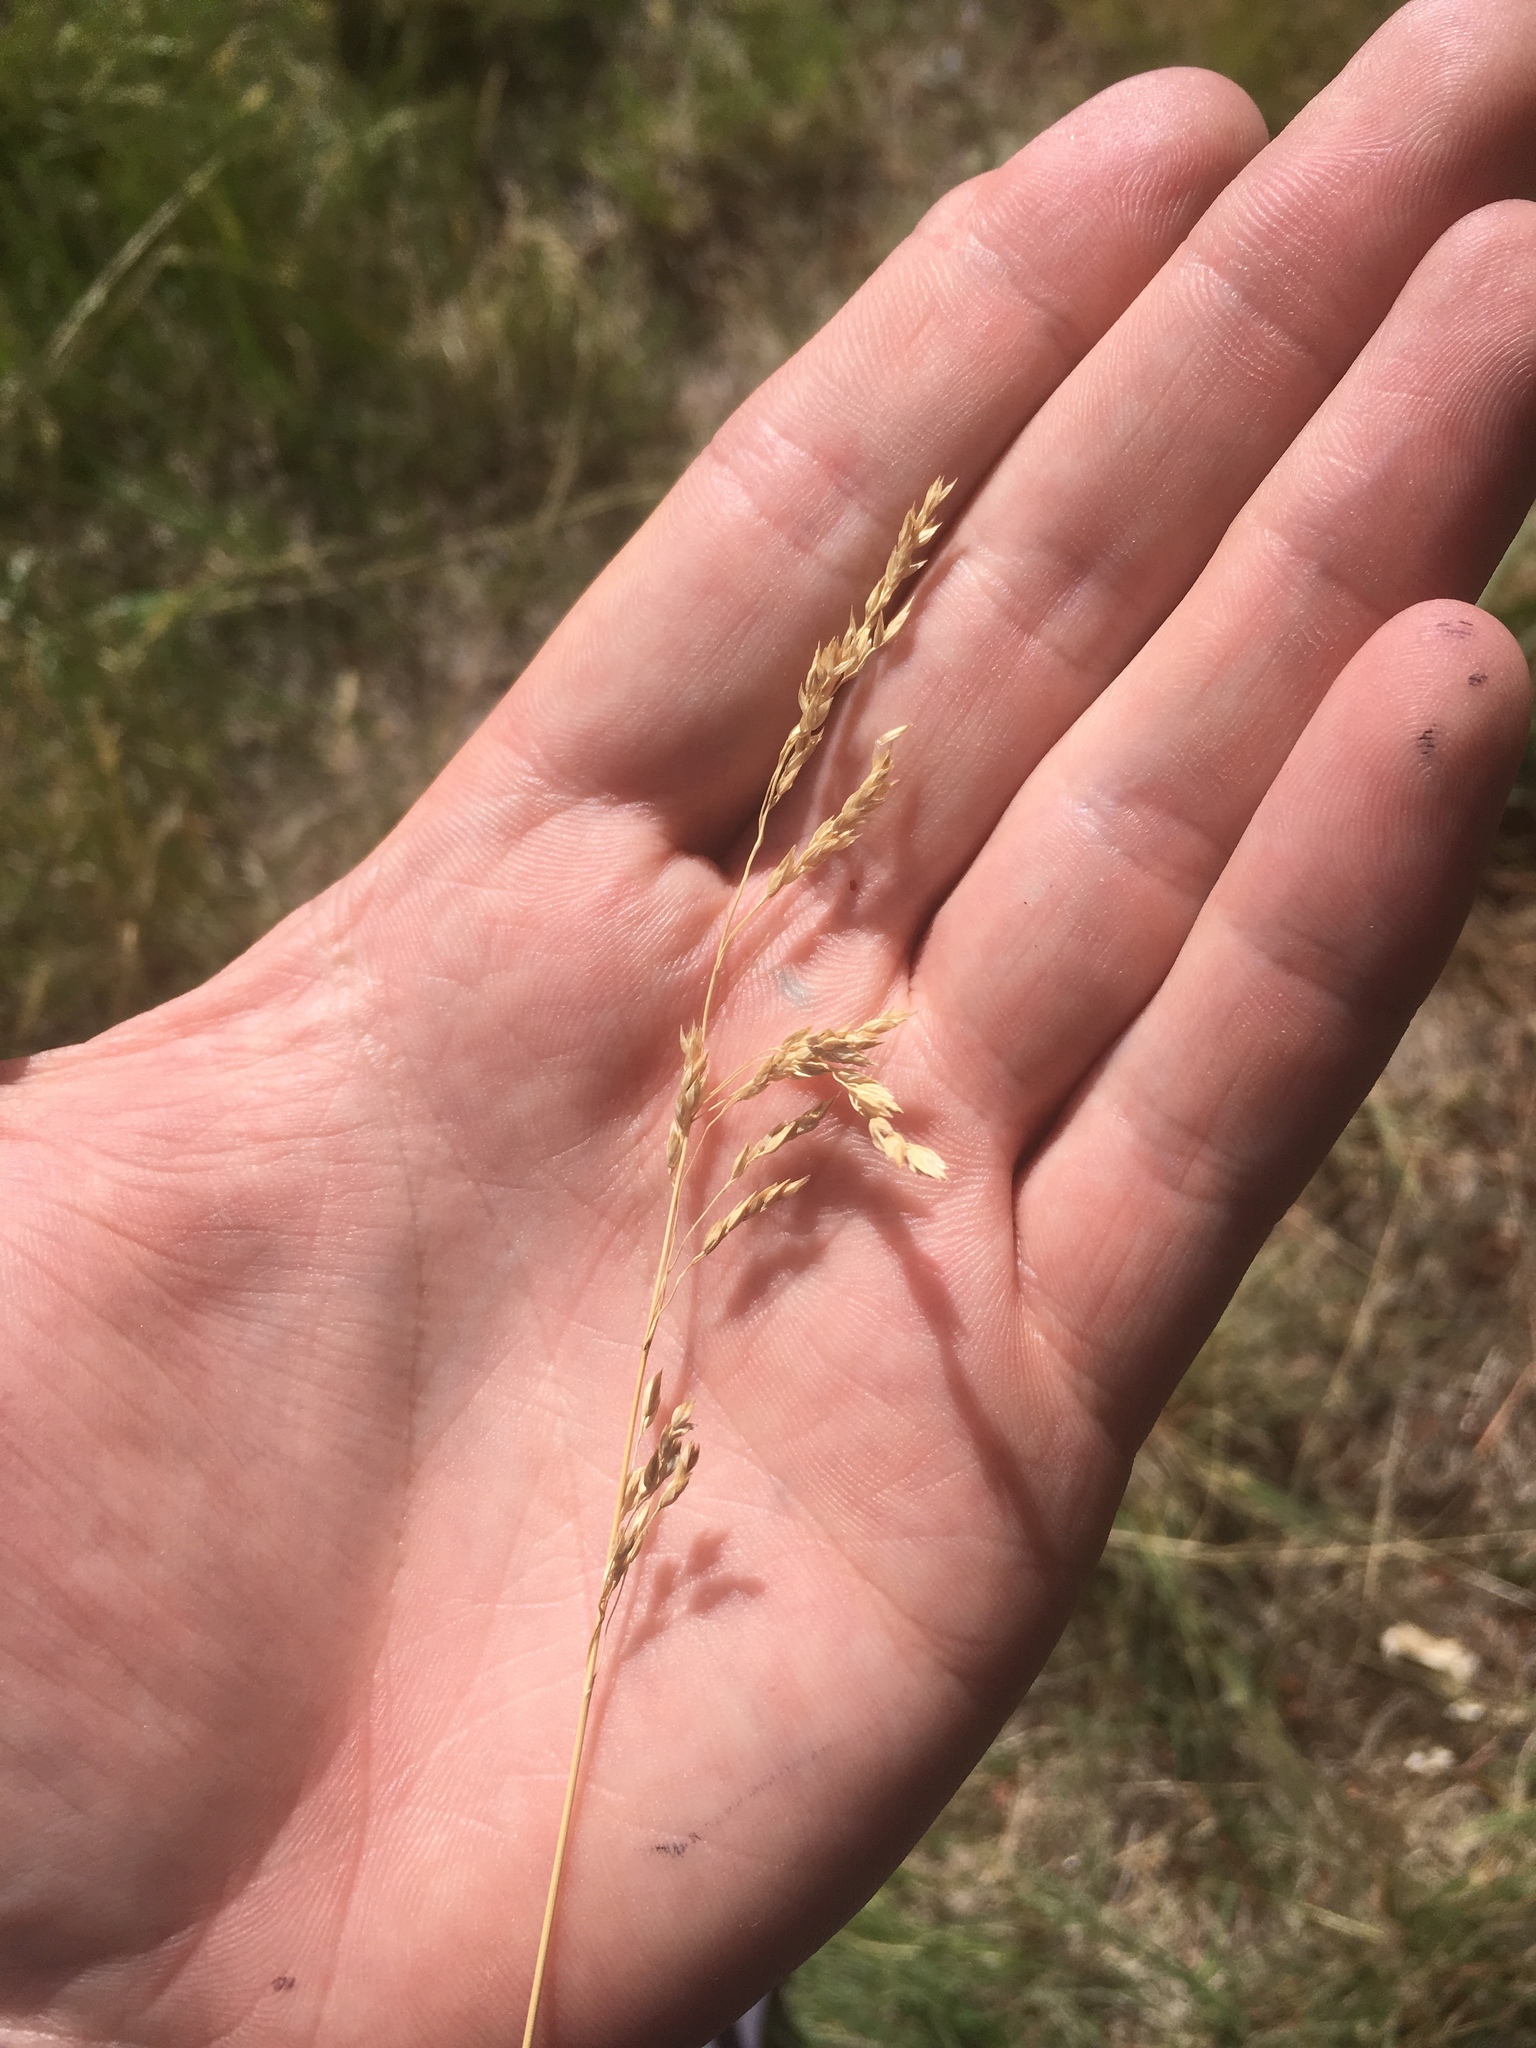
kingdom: Plantae
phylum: Tracheophyta
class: Liliopsida
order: Poales
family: Poaceae
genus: Poa
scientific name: Poa pratensis
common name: Kentucky bluegrass
